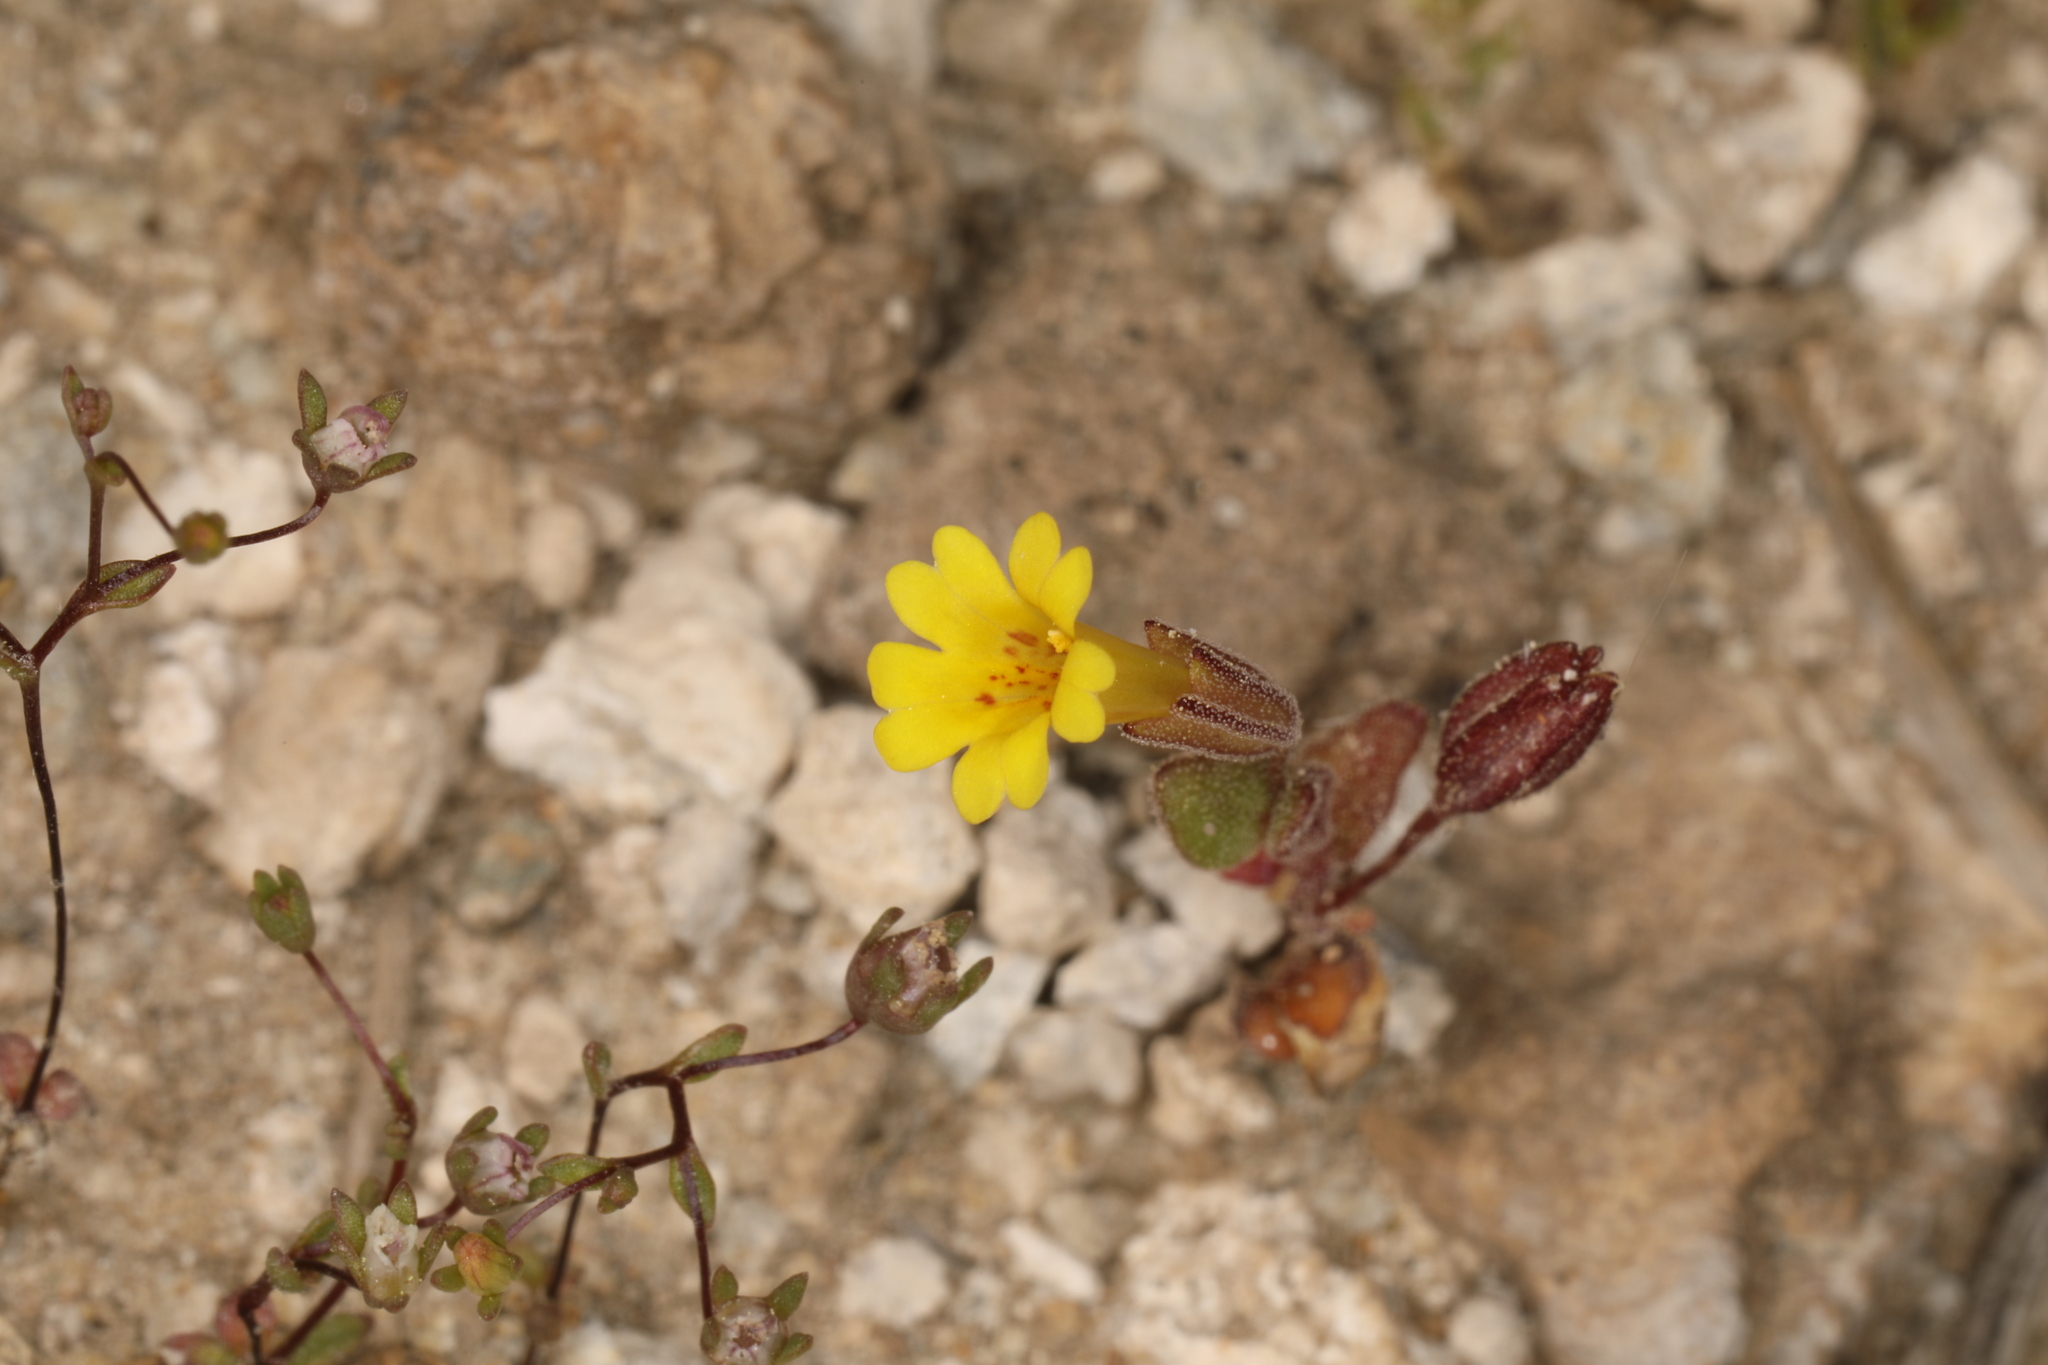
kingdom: Plantae
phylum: Tracheophyta
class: Magnoliopsida
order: Lamiales
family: Phrymaceae
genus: Erythranthe
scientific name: Erythranthe calcicola
